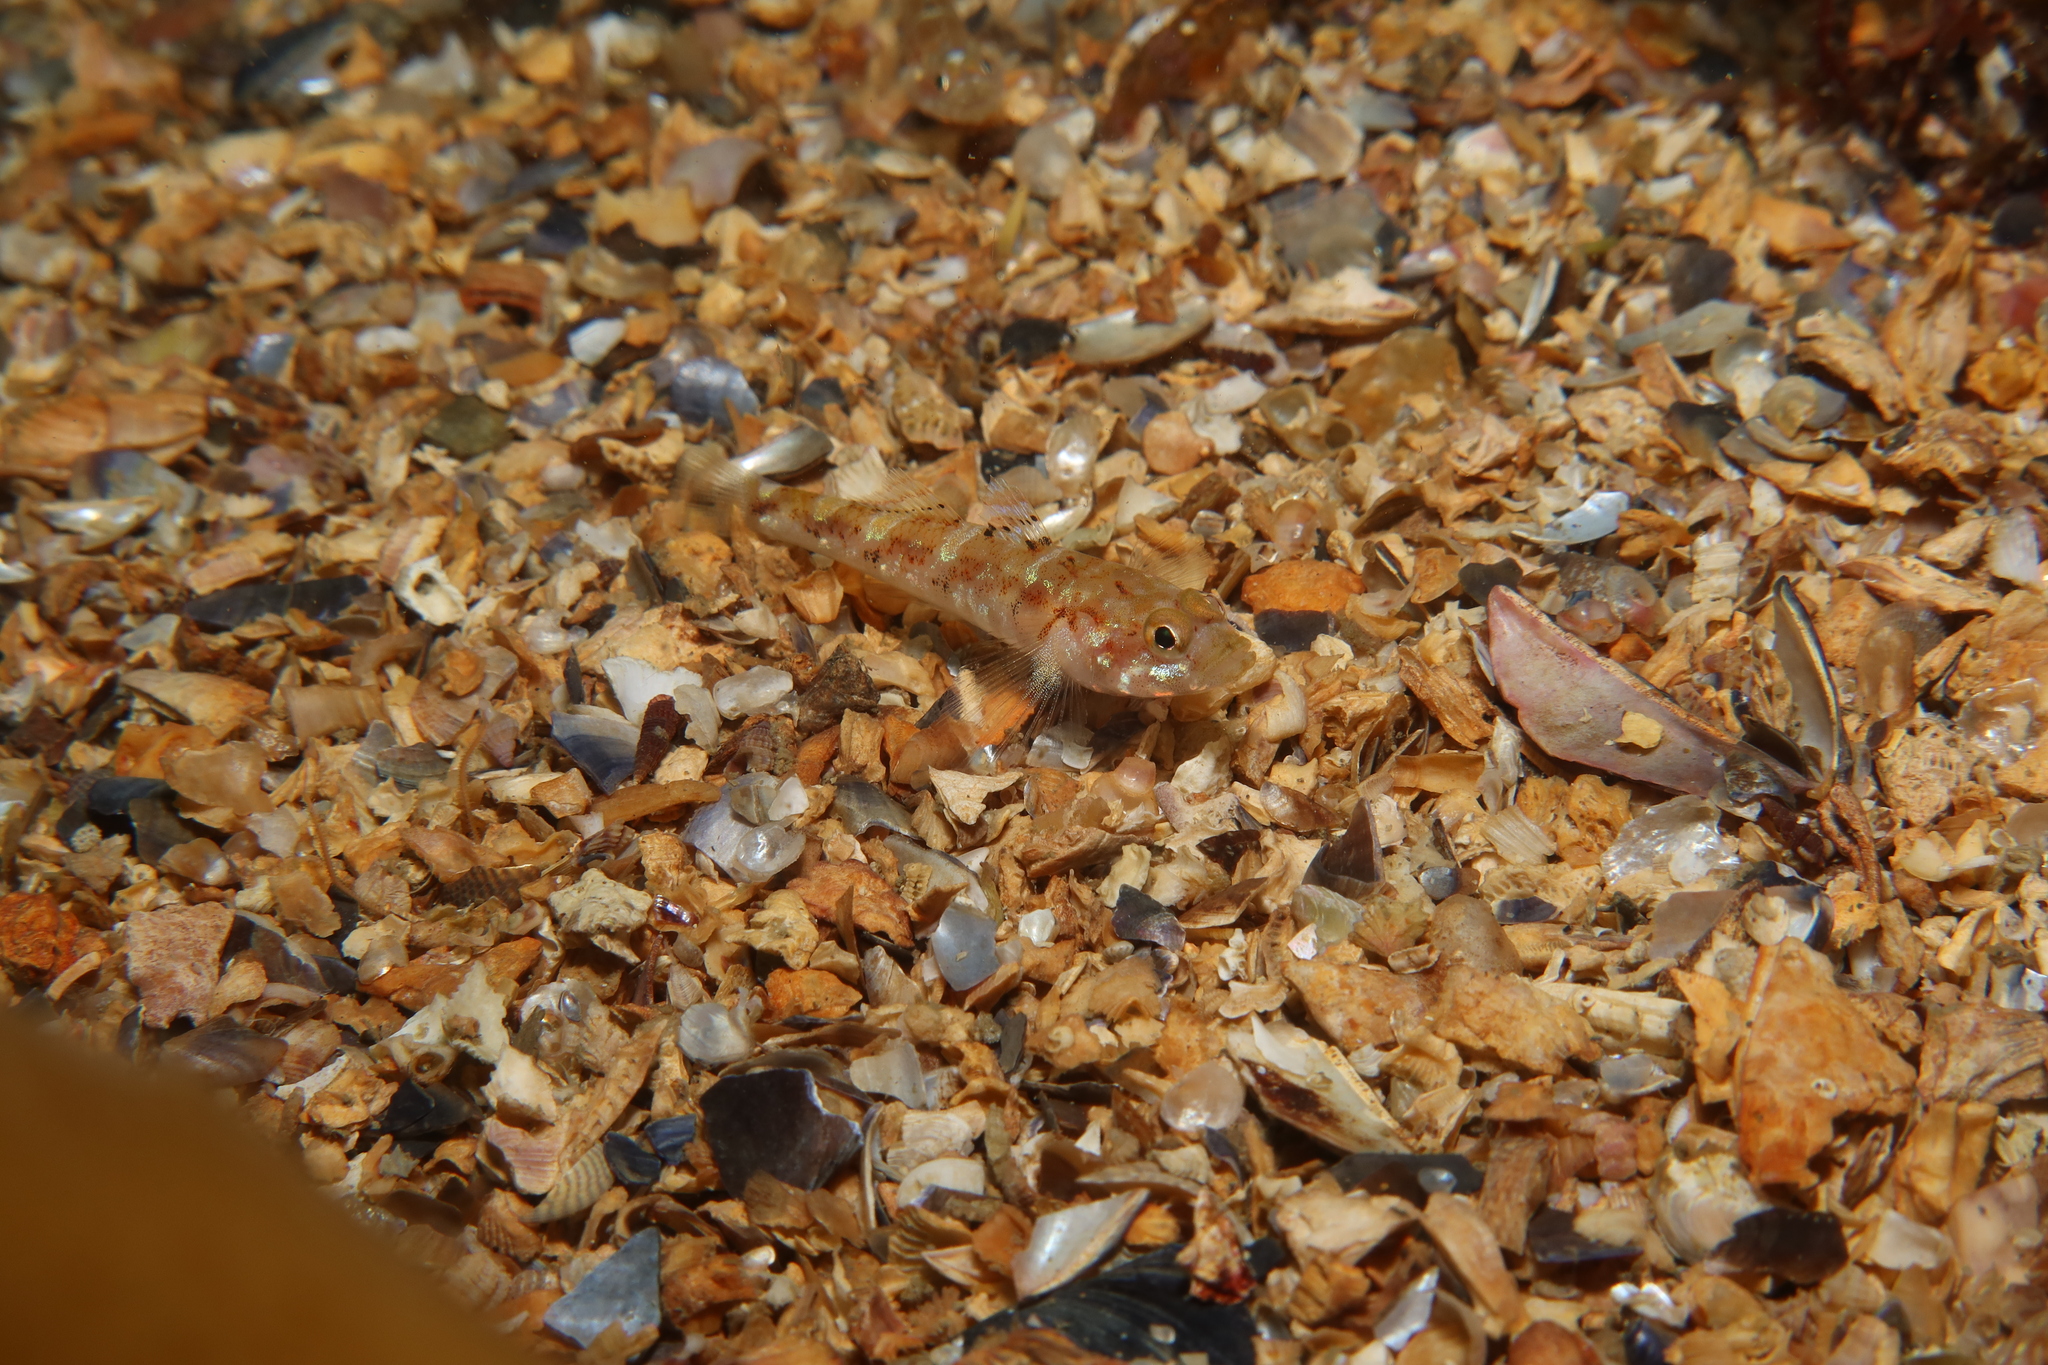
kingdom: Animalia
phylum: Chordata
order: Perciformes
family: Gobiidae
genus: Pomatoschistus
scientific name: Pomatoschistus pictus
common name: Painted goby
